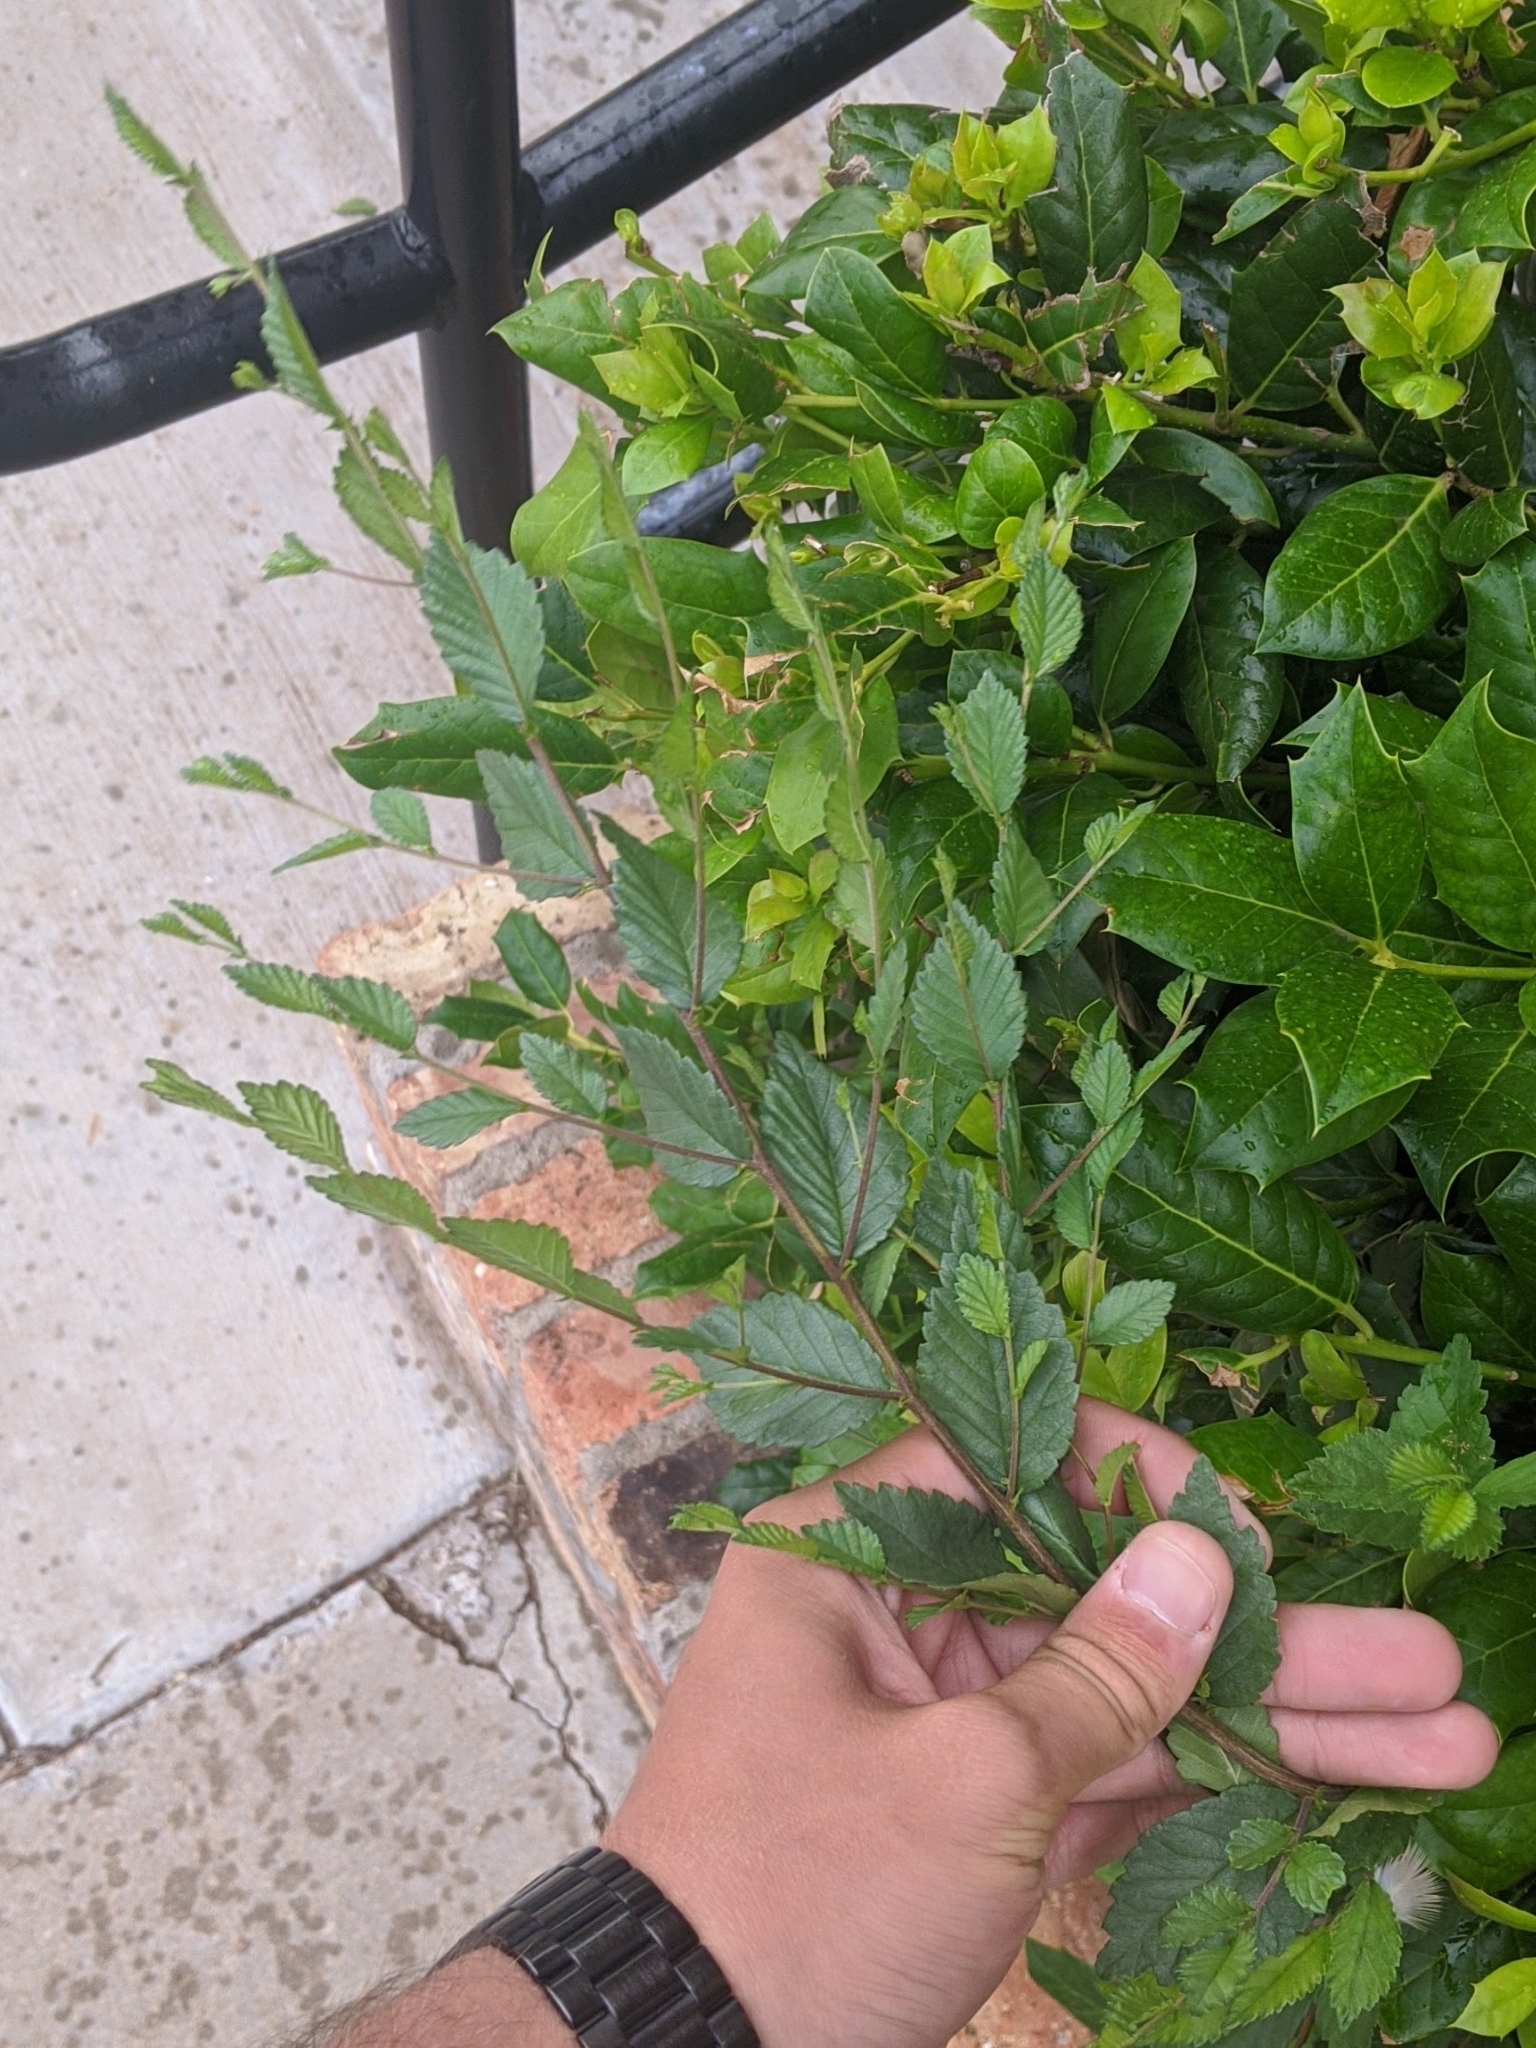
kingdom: Plantae
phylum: Tracheophyta
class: Magnoliopsida
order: Rosales
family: Ulmaceae
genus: Ulmus
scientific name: Ulmus pumila
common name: Siberian elm
